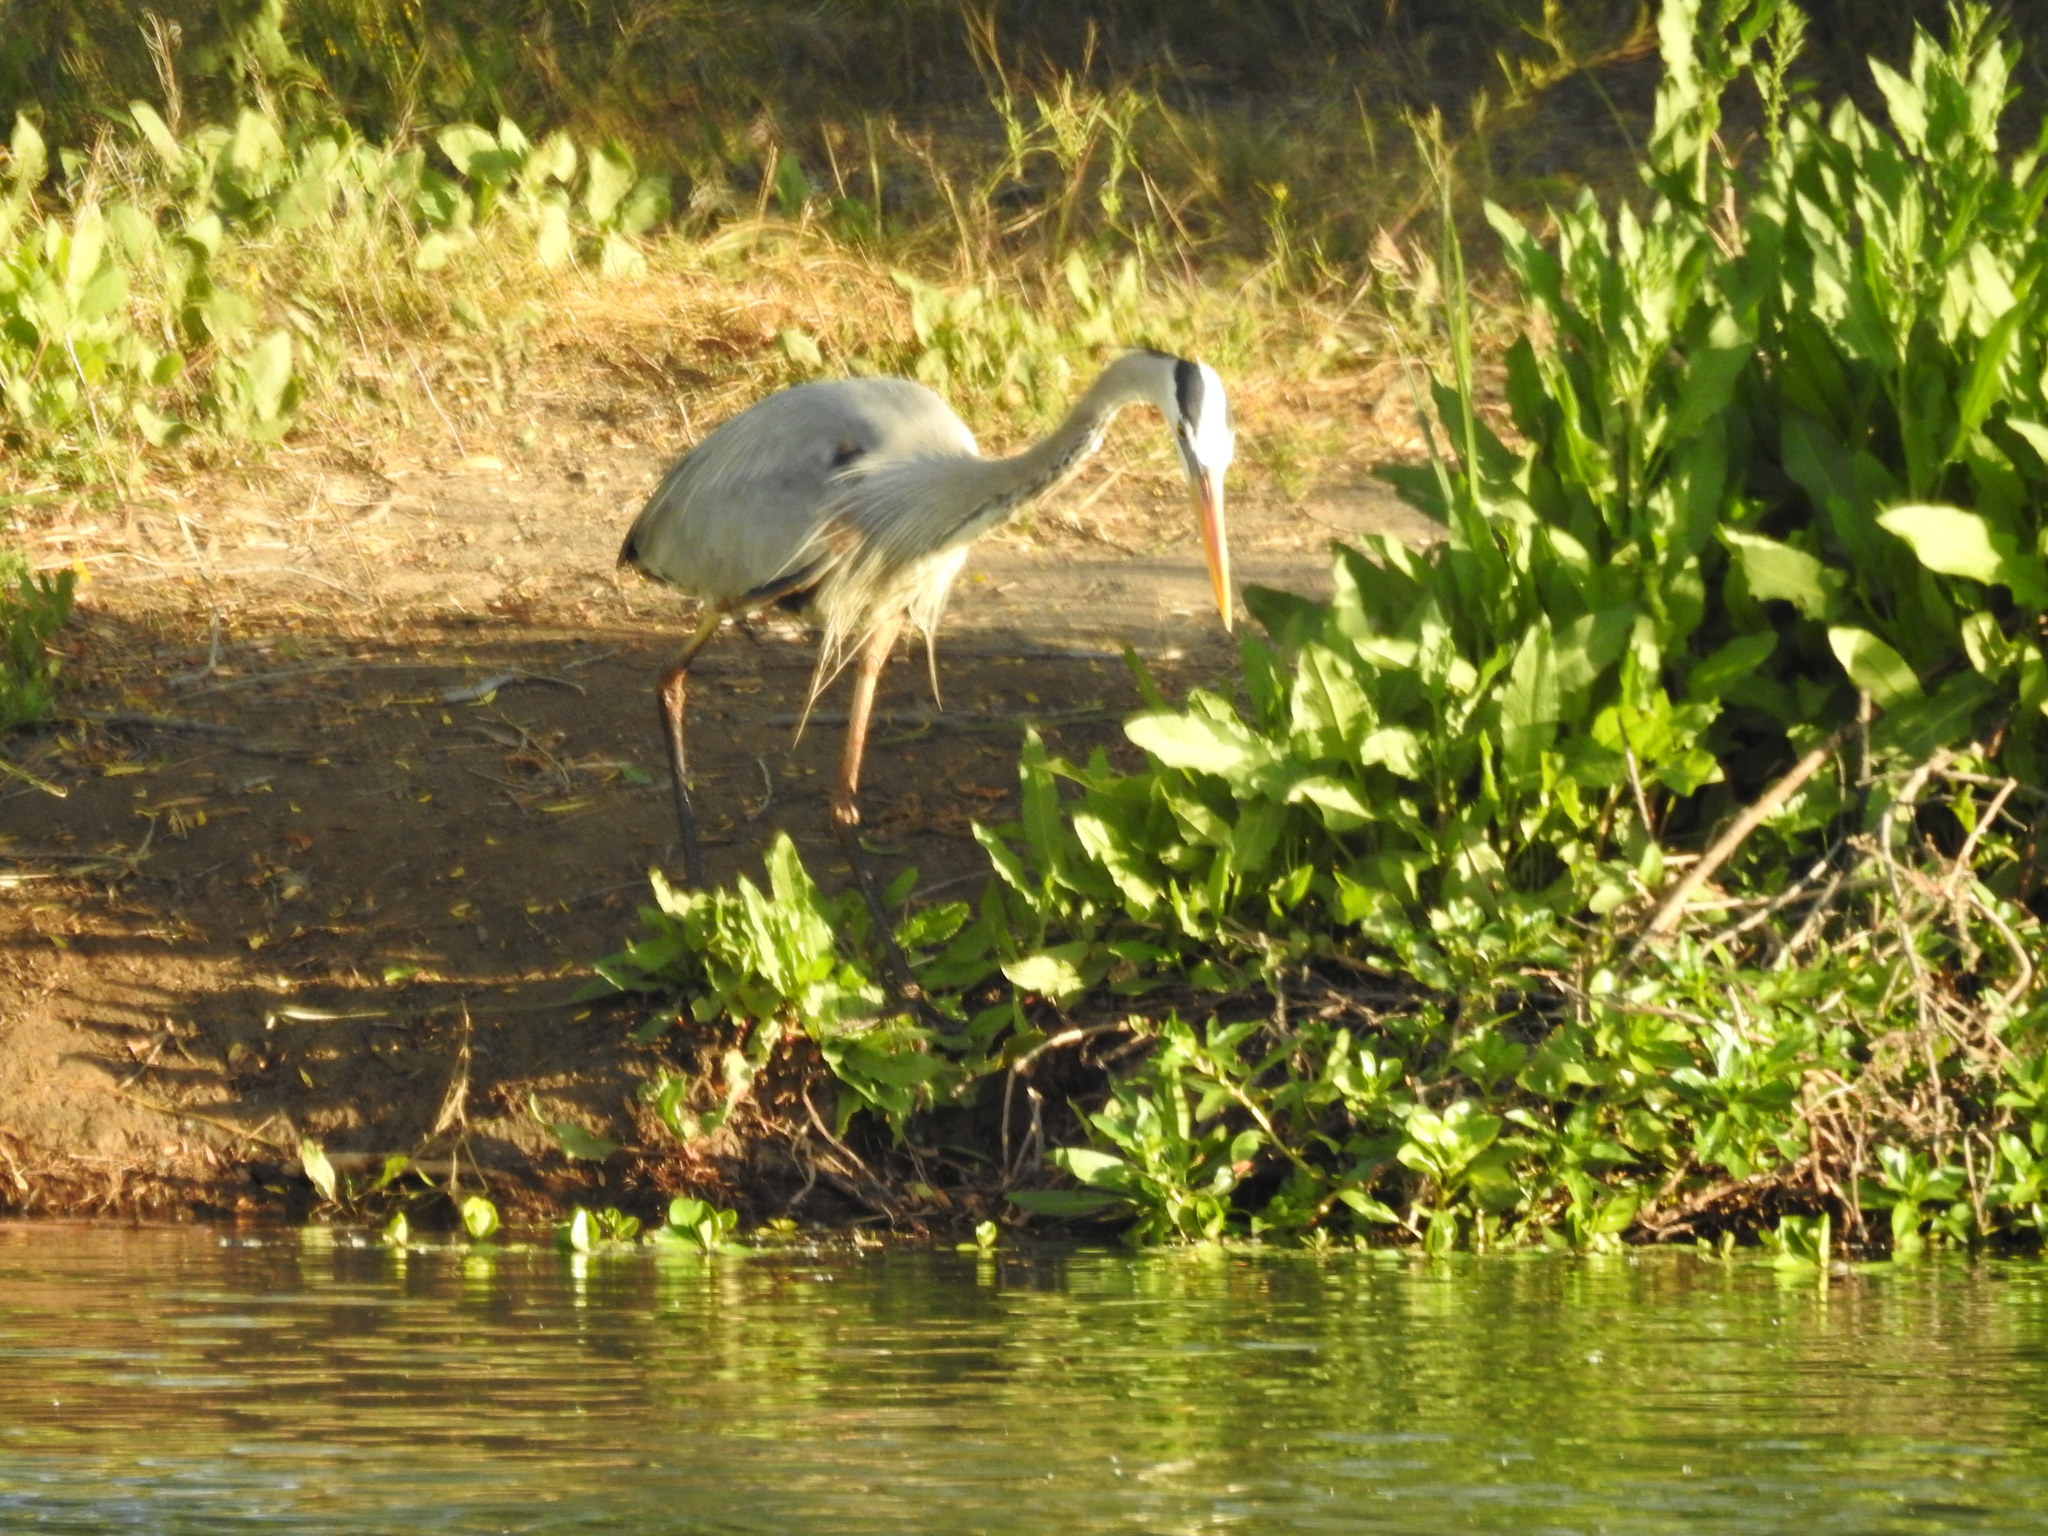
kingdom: Animalia
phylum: Chordata
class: Aves
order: Pelecaniformes
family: Ardeidae
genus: Ardea
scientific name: Ardea herodias
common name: Great blue heron
